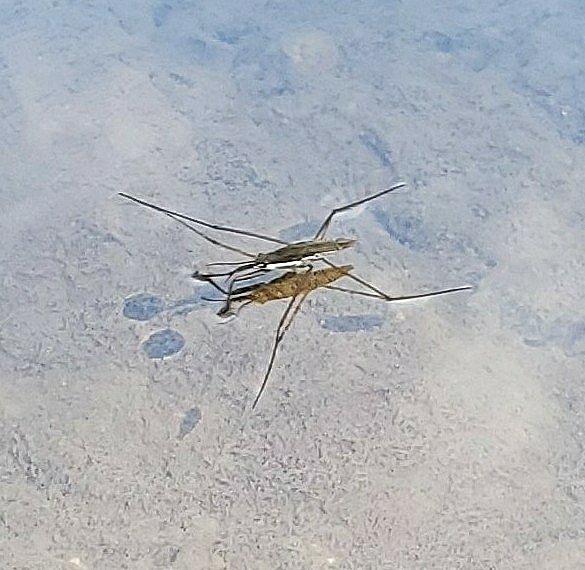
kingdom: Animalia
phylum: Arthropoda
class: Insecta
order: Hemiptera
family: Gerridae
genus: Aquarius
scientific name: Aquarius remigis
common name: Common water strider
